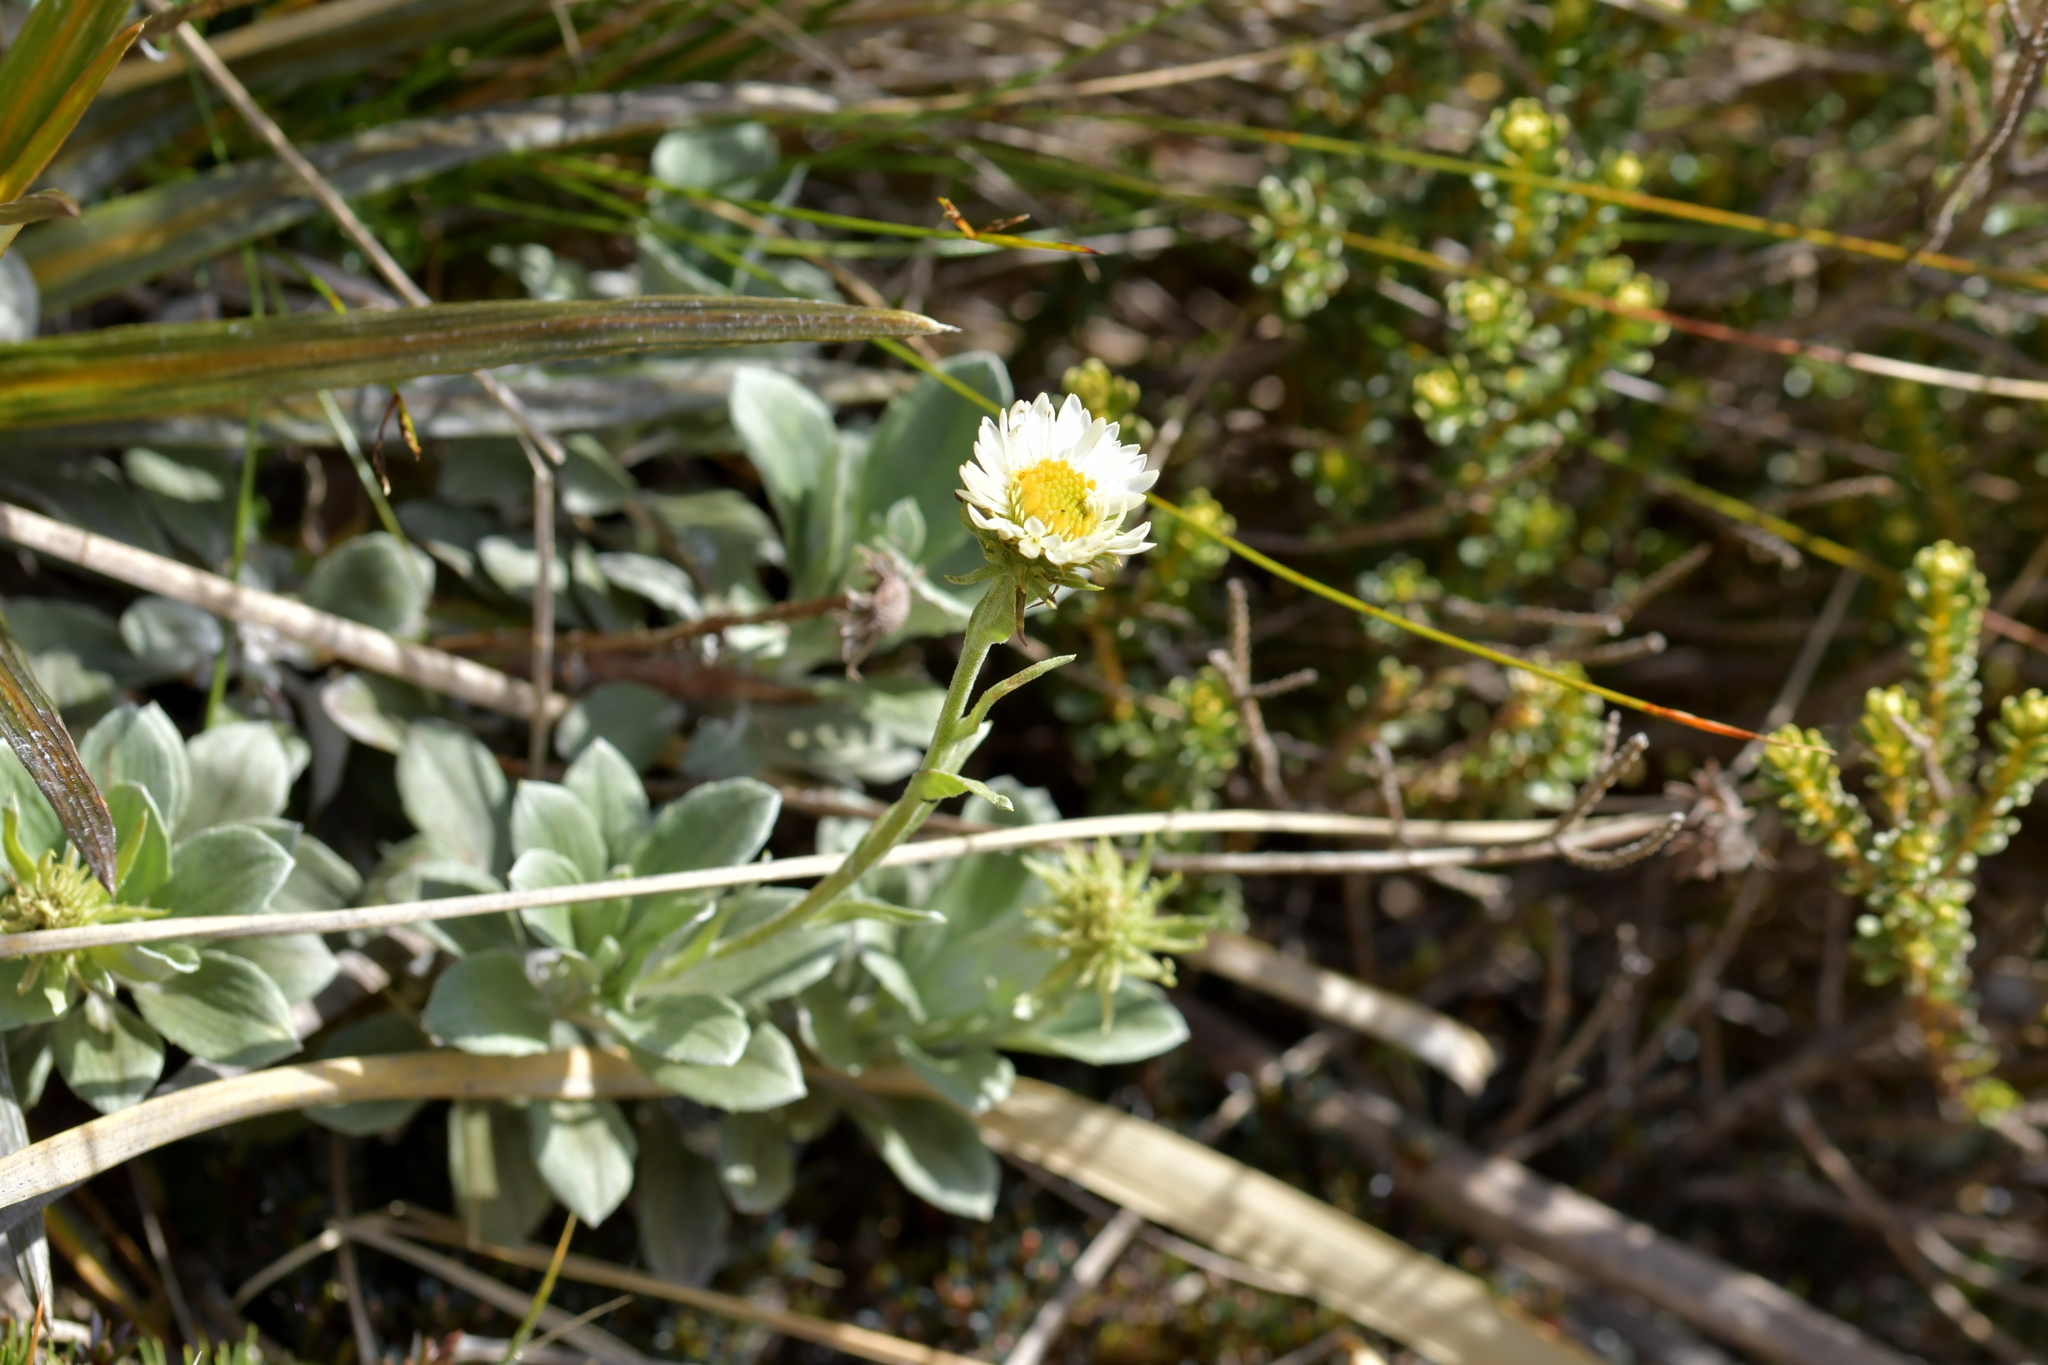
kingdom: Plantae
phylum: Tracheophyta
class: Magnoliopsida
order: Asterales
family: Asteraceae
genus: Celmisia
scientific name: Celmisia discolor
